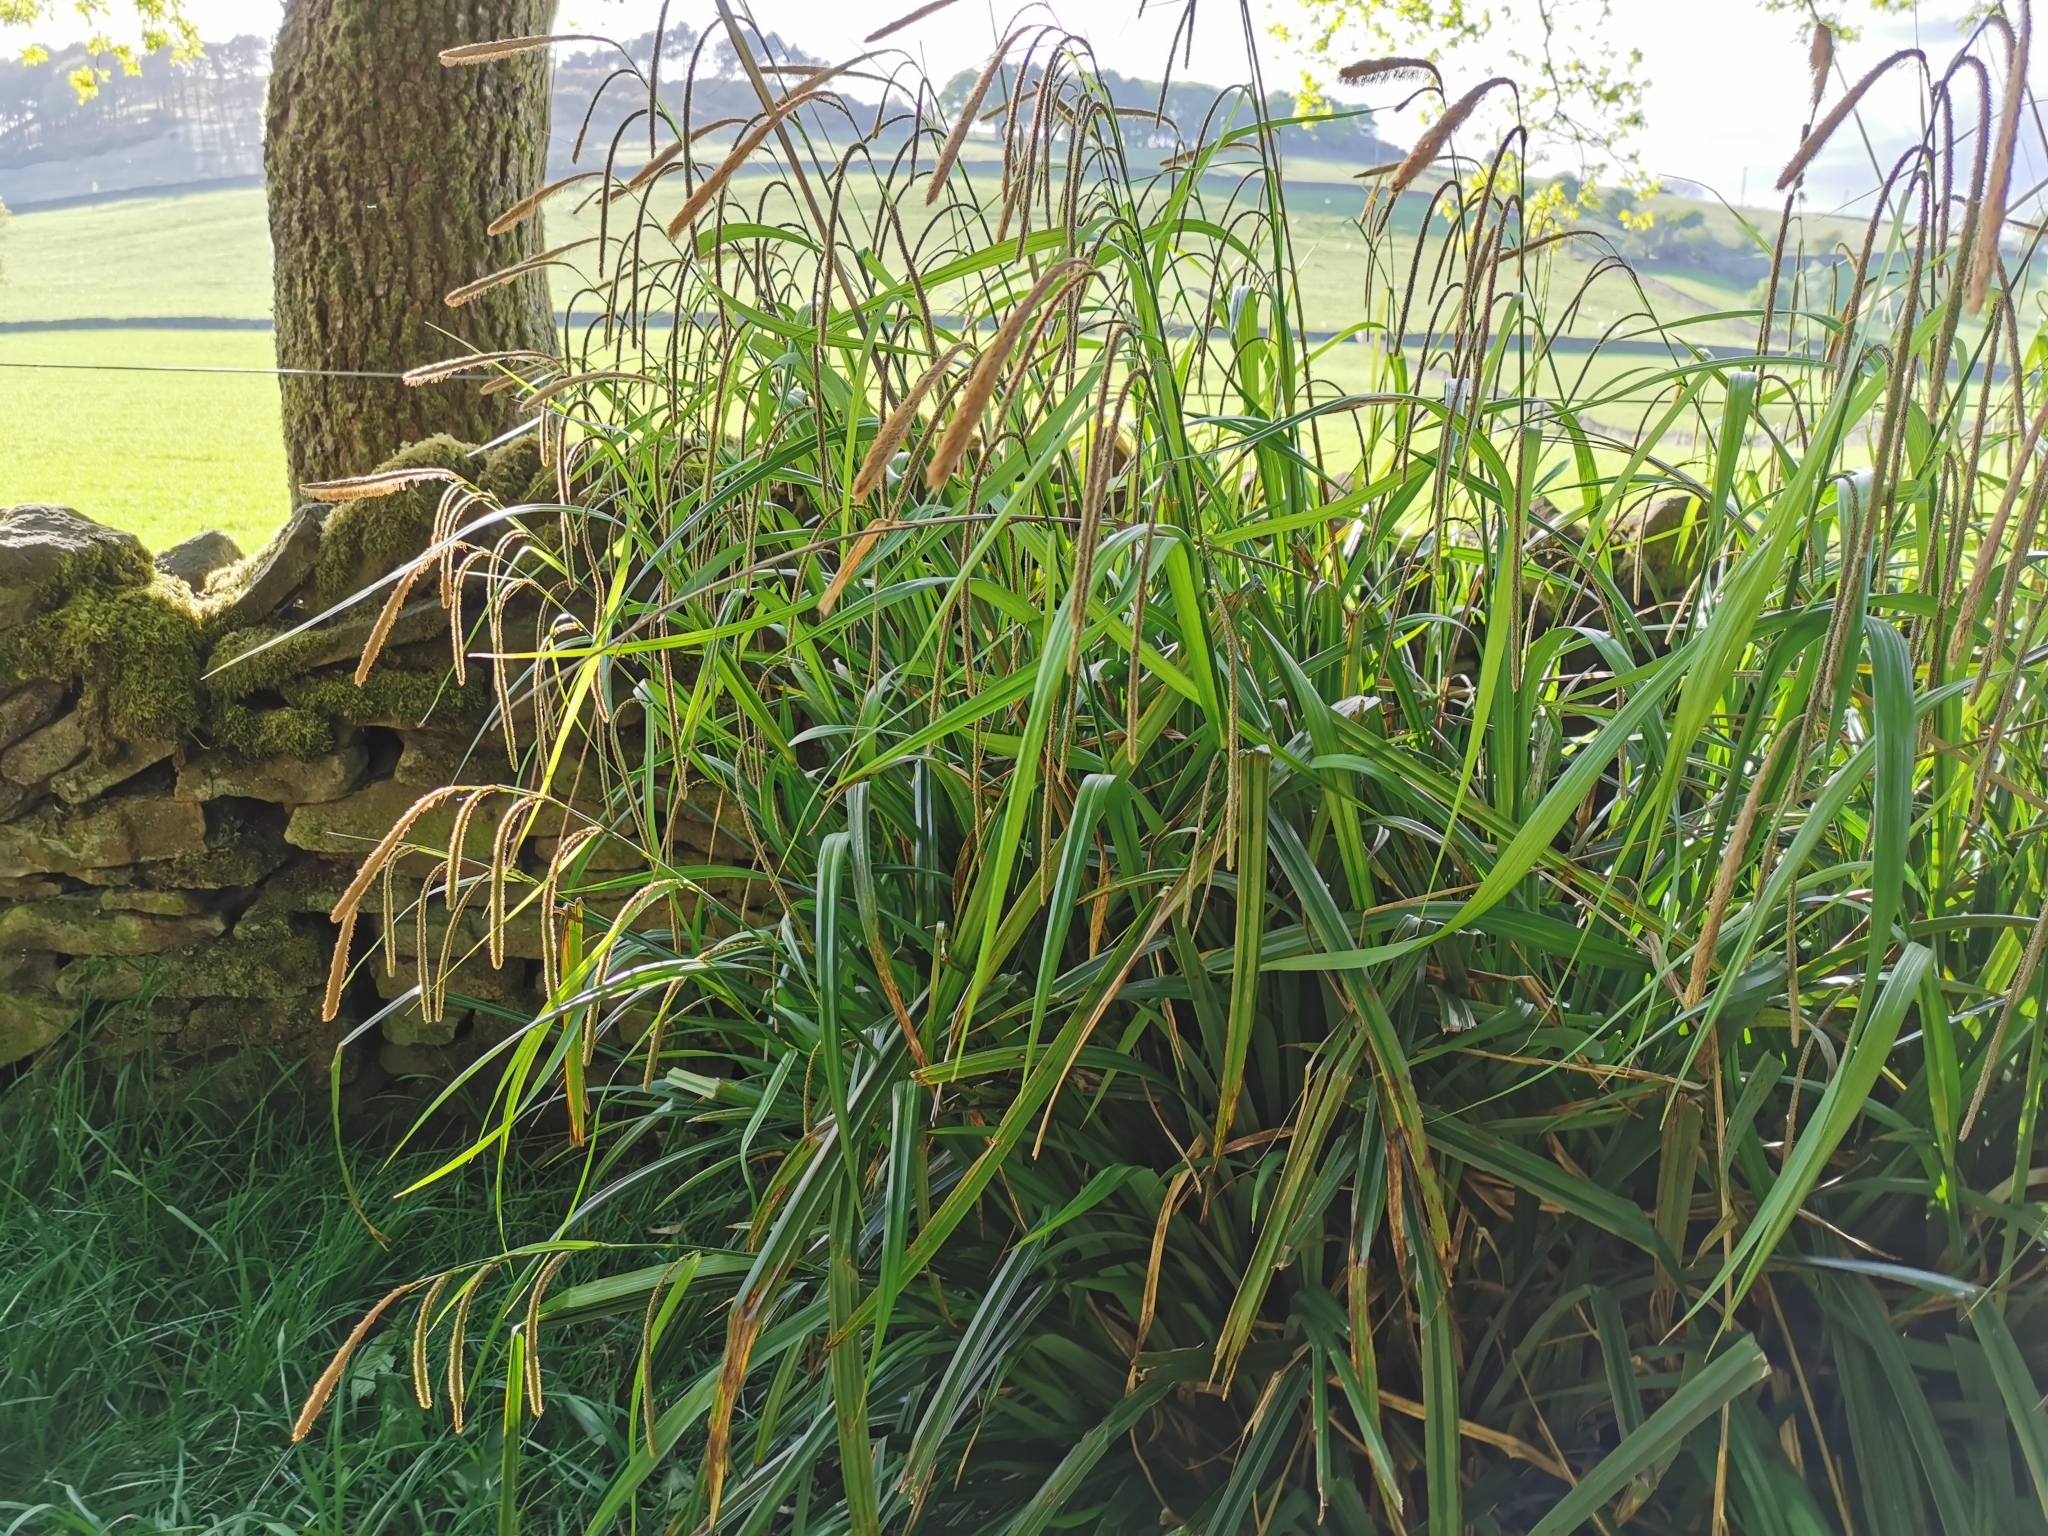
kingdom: Plantae
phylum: Tracheophyta
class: Liliopsida
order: Poales
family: Cyperaceae
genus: Carex
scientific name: Carex pendula
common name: Pendulous sedge
